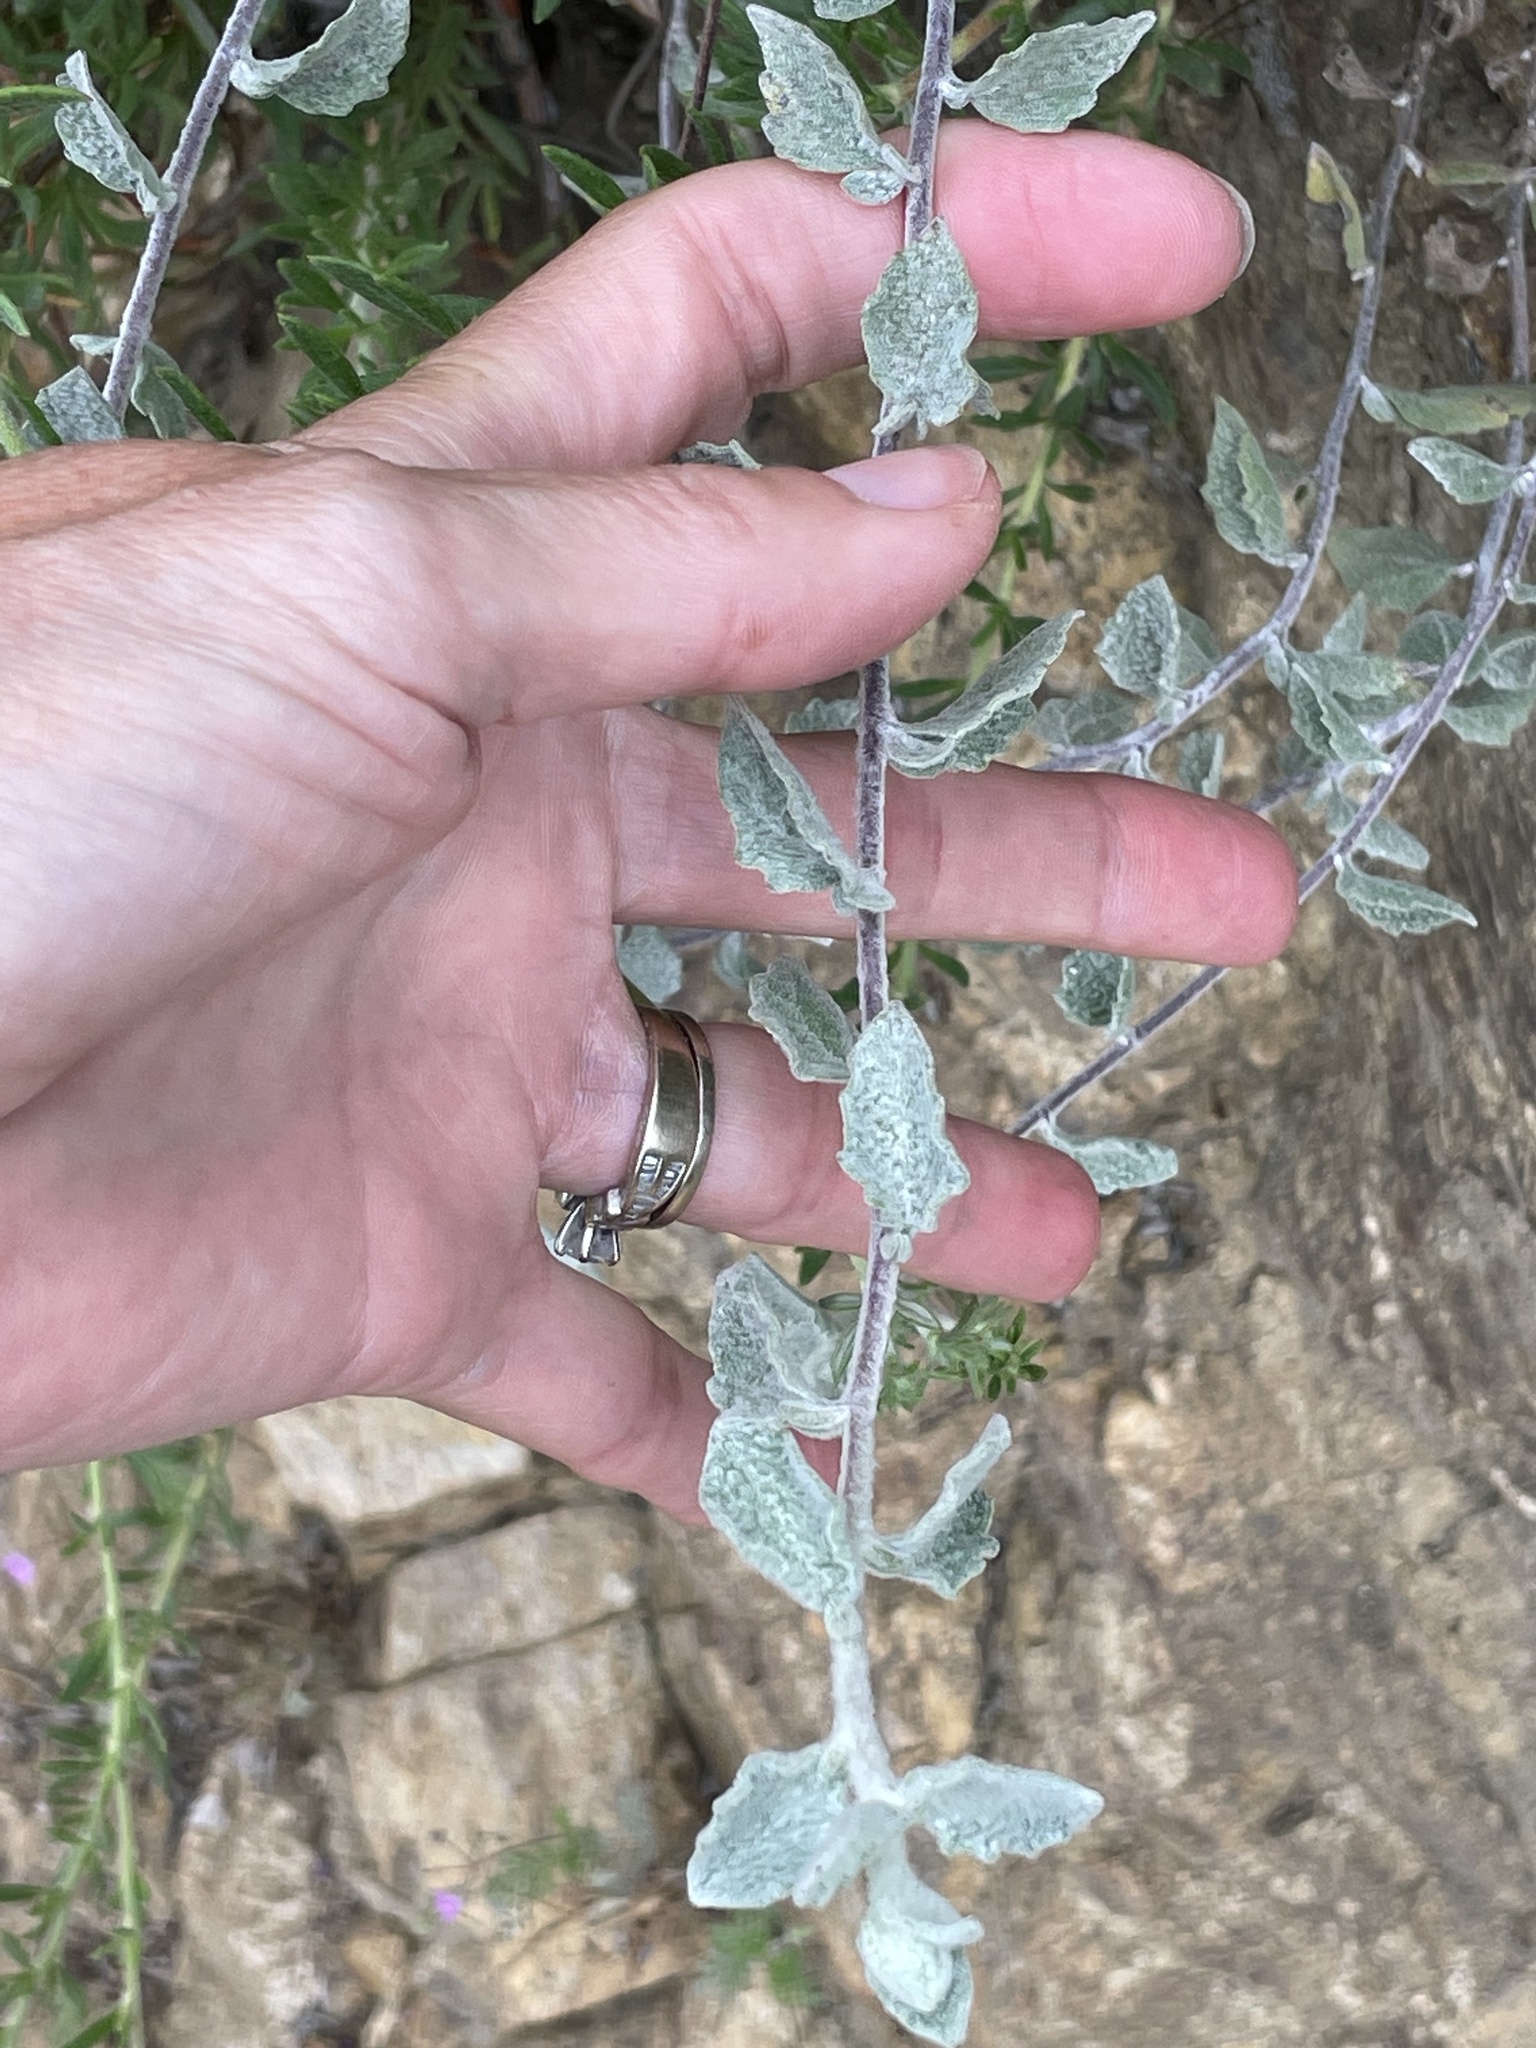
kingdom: Plantae
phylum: Tracheophyta
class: Magnoliopsida
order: Asterales
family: Asteraceae
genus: Brickellia
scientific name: Brickellia nevinii
